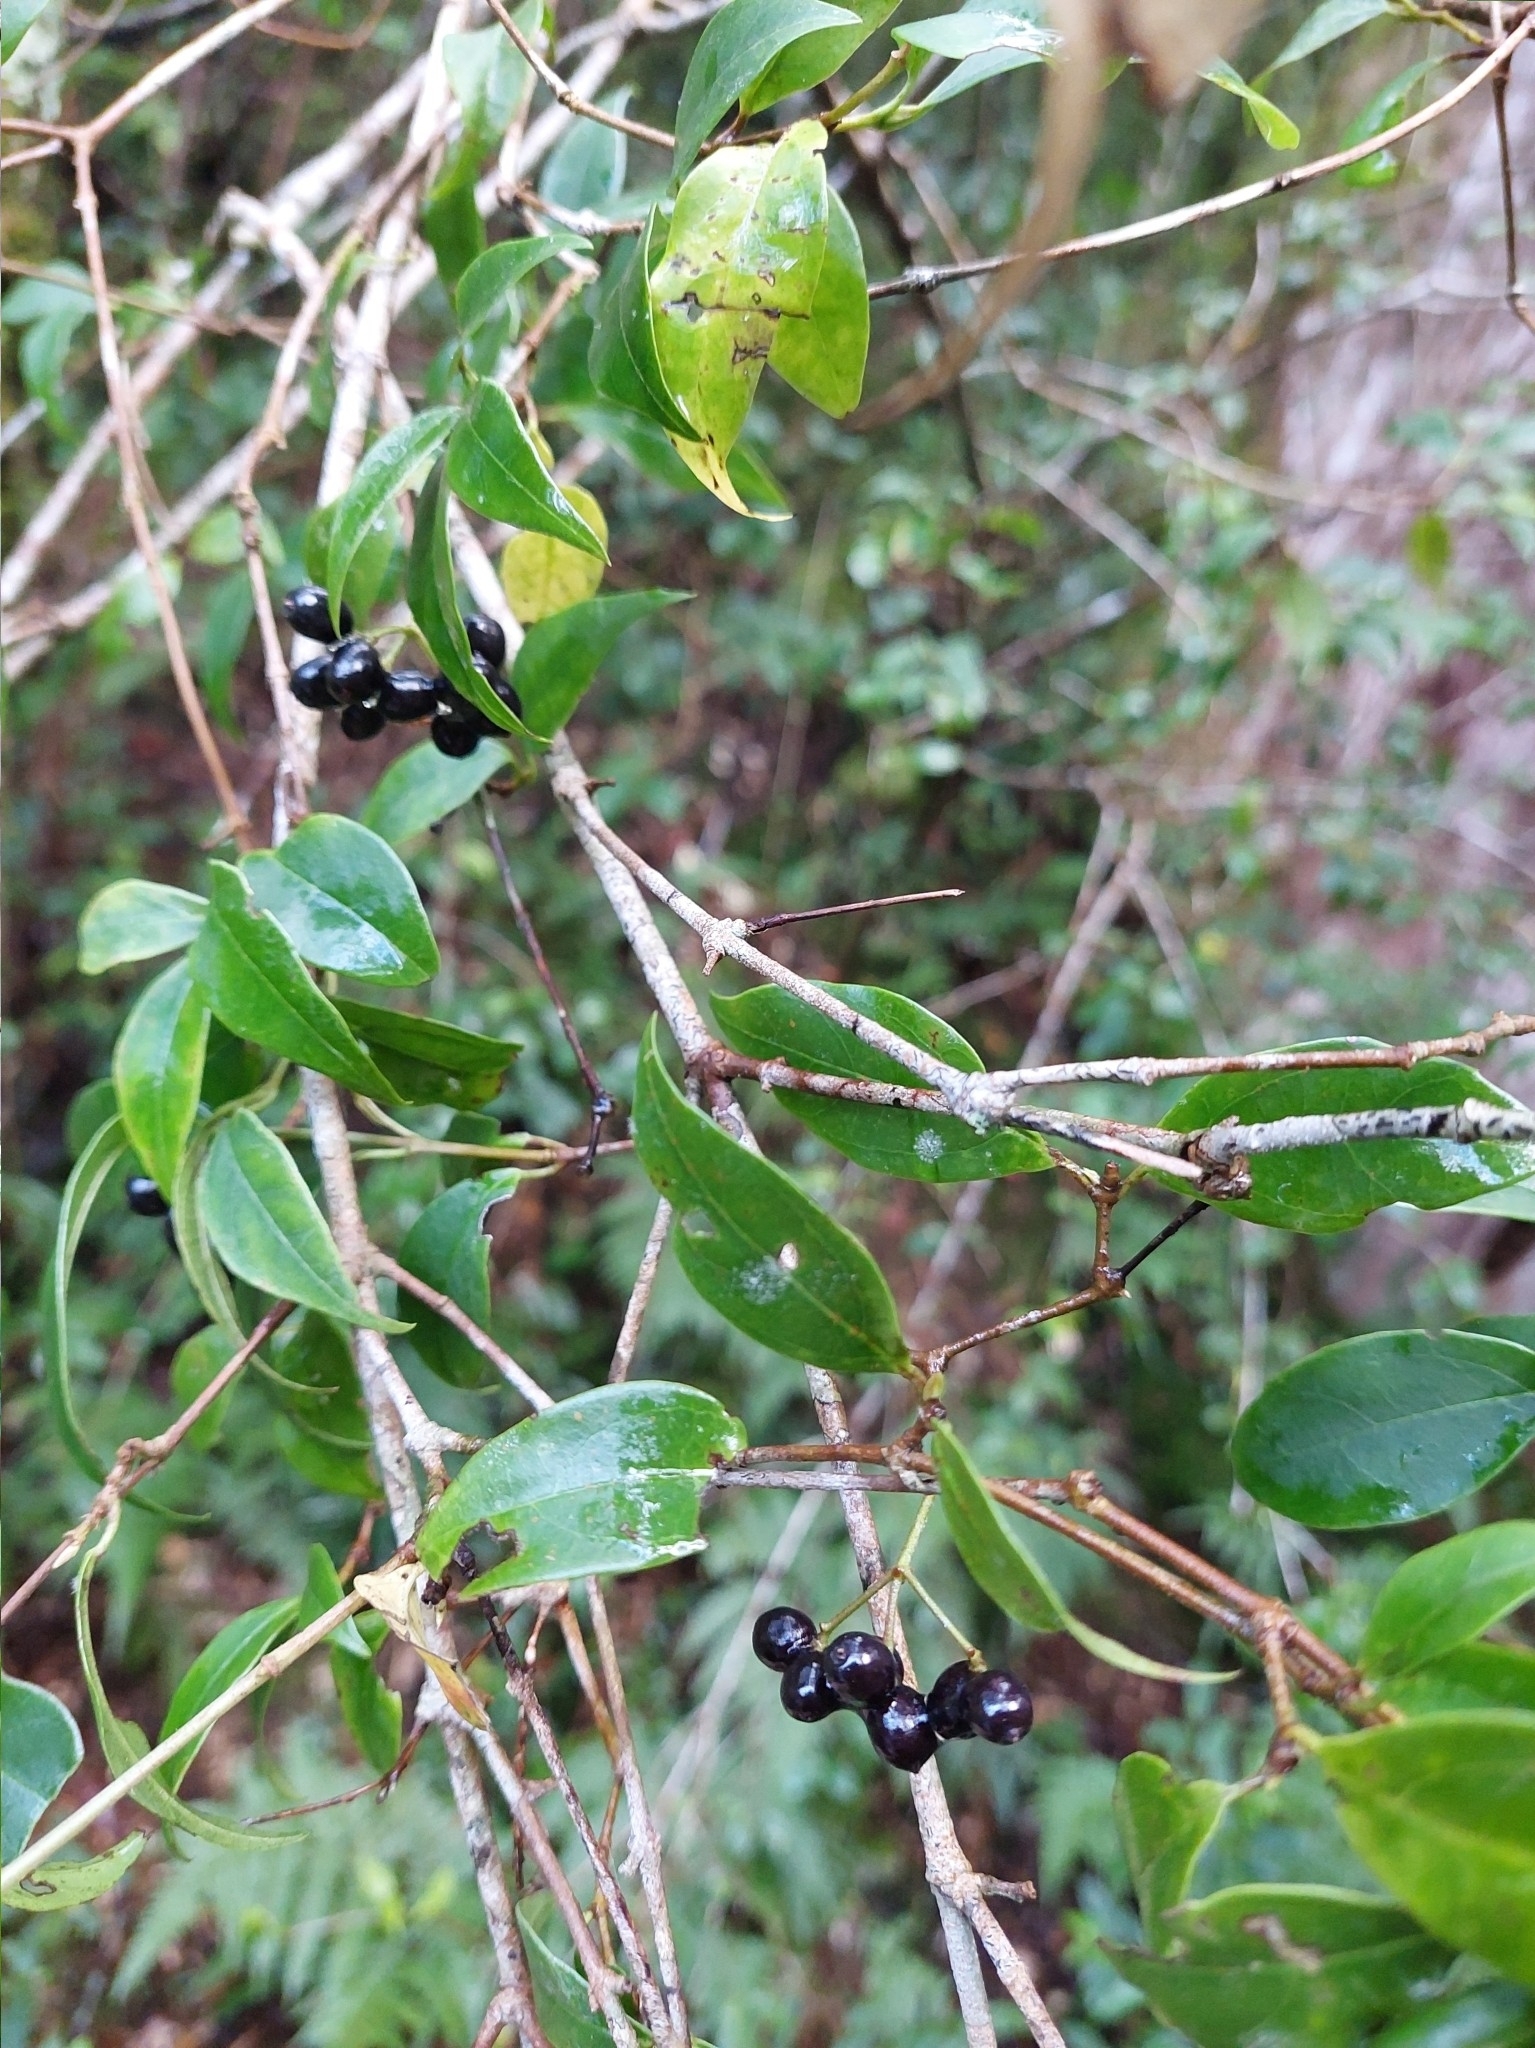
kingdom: Plantae
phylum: Tracheophyta
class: Magnoliopsida
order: Dipsacales
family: Viburnaceae
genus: Viburnum
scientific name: Viburnum integrifolium
